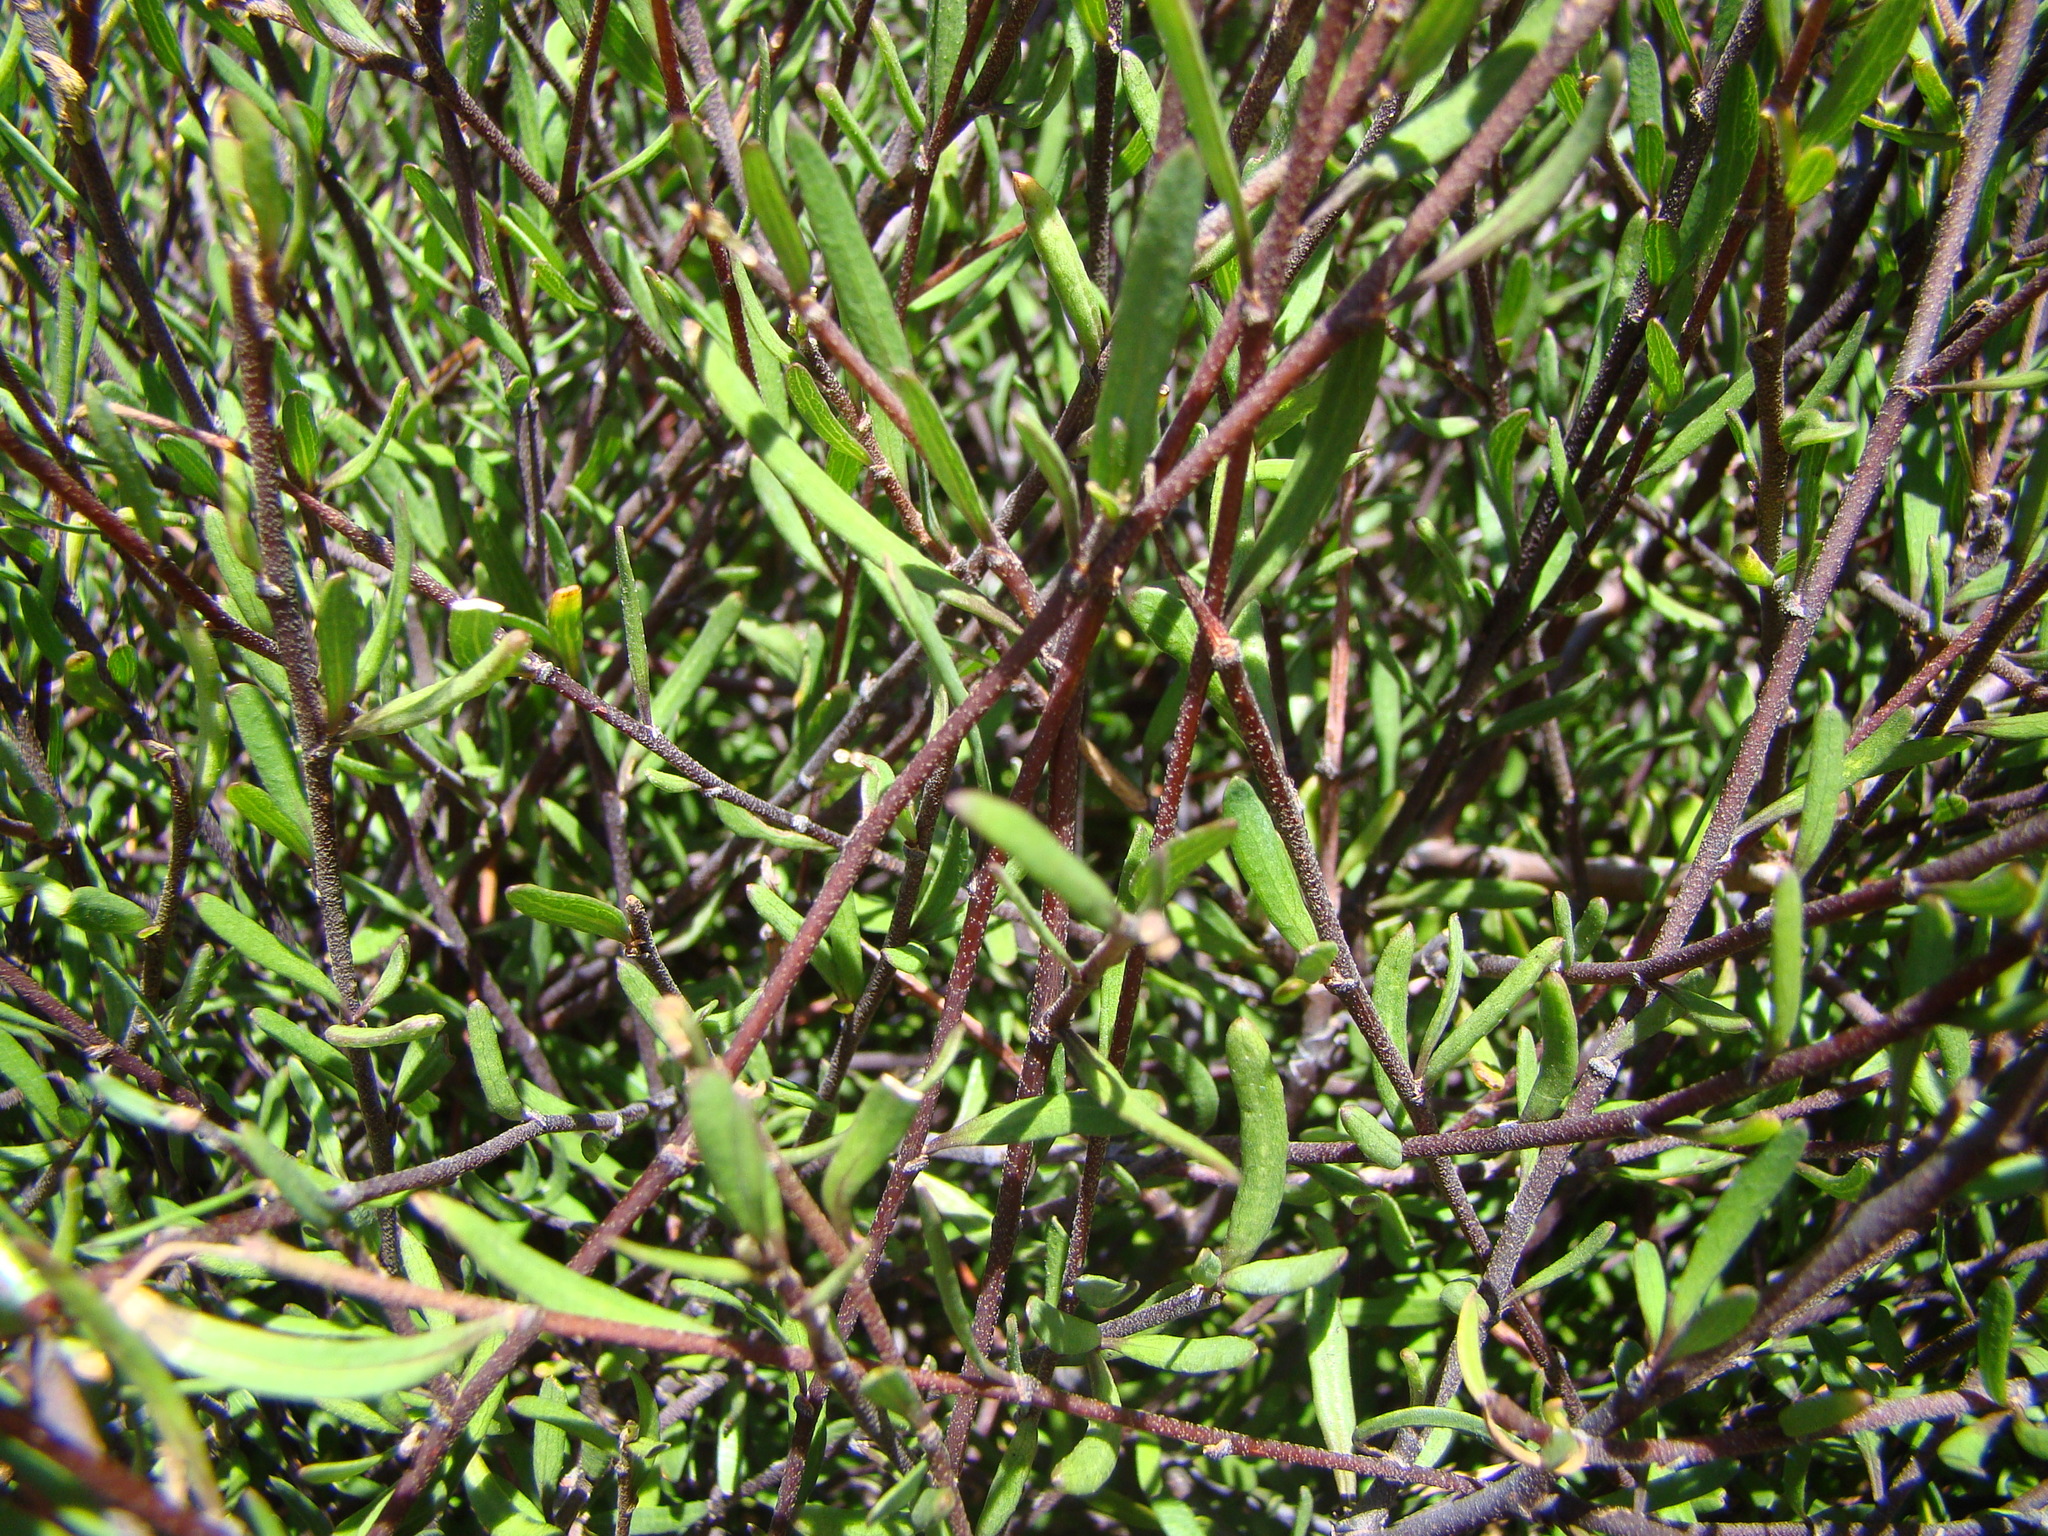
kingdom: Plantae
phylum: Tracheophyta
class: Magnoliopsida
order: Malvales
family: Malvaceae
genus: Plagianthus
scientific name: Plagianthus divaricatus
